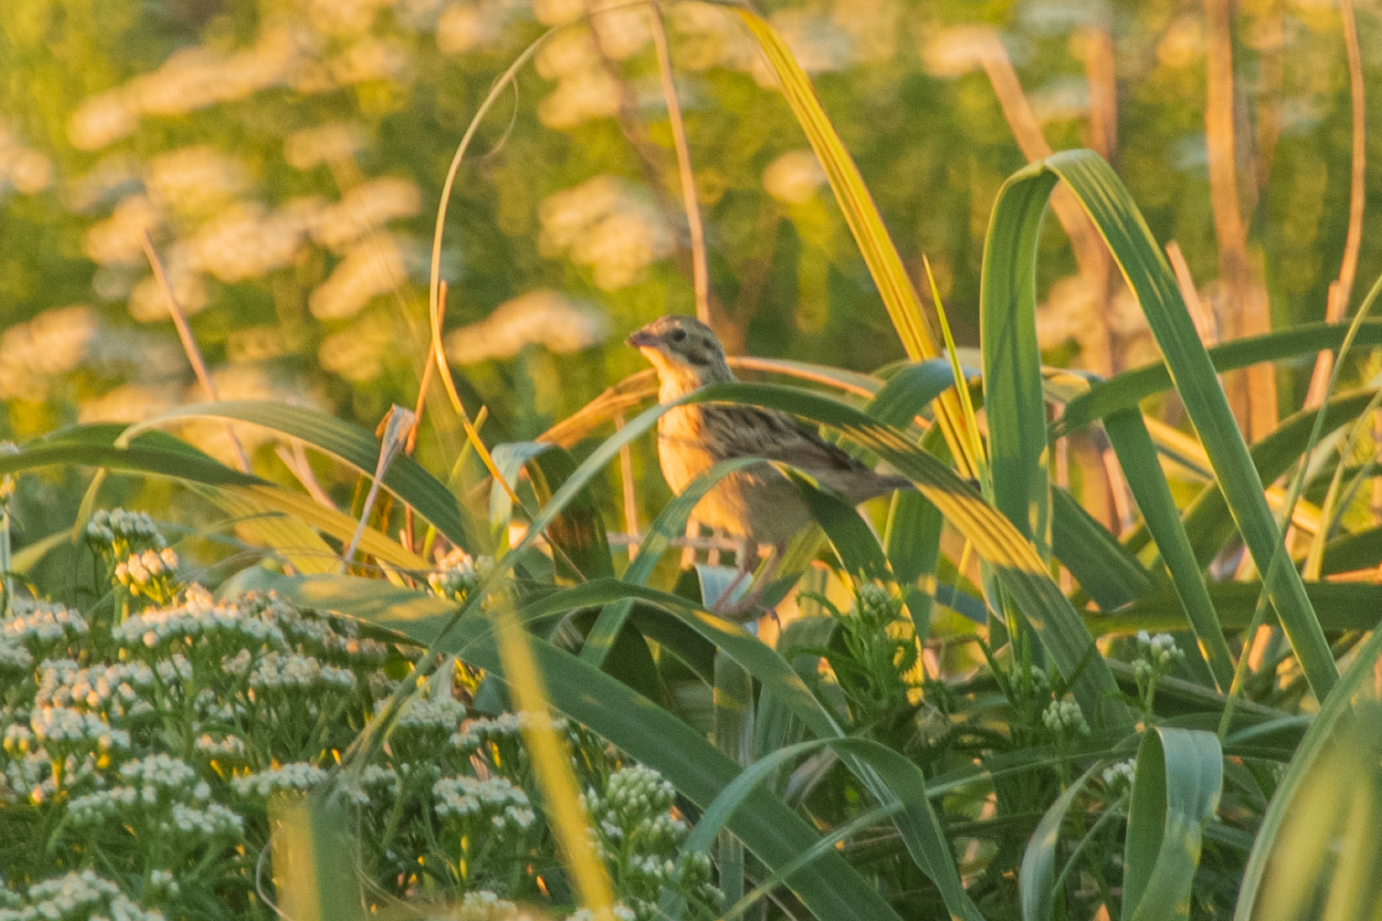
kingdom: Animalia
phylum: Chordata
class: Aves
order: Passeriformes
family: Emberizidae
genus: Emberiza
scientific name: Emberiza fucata
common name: Chestnut-eared bunting
